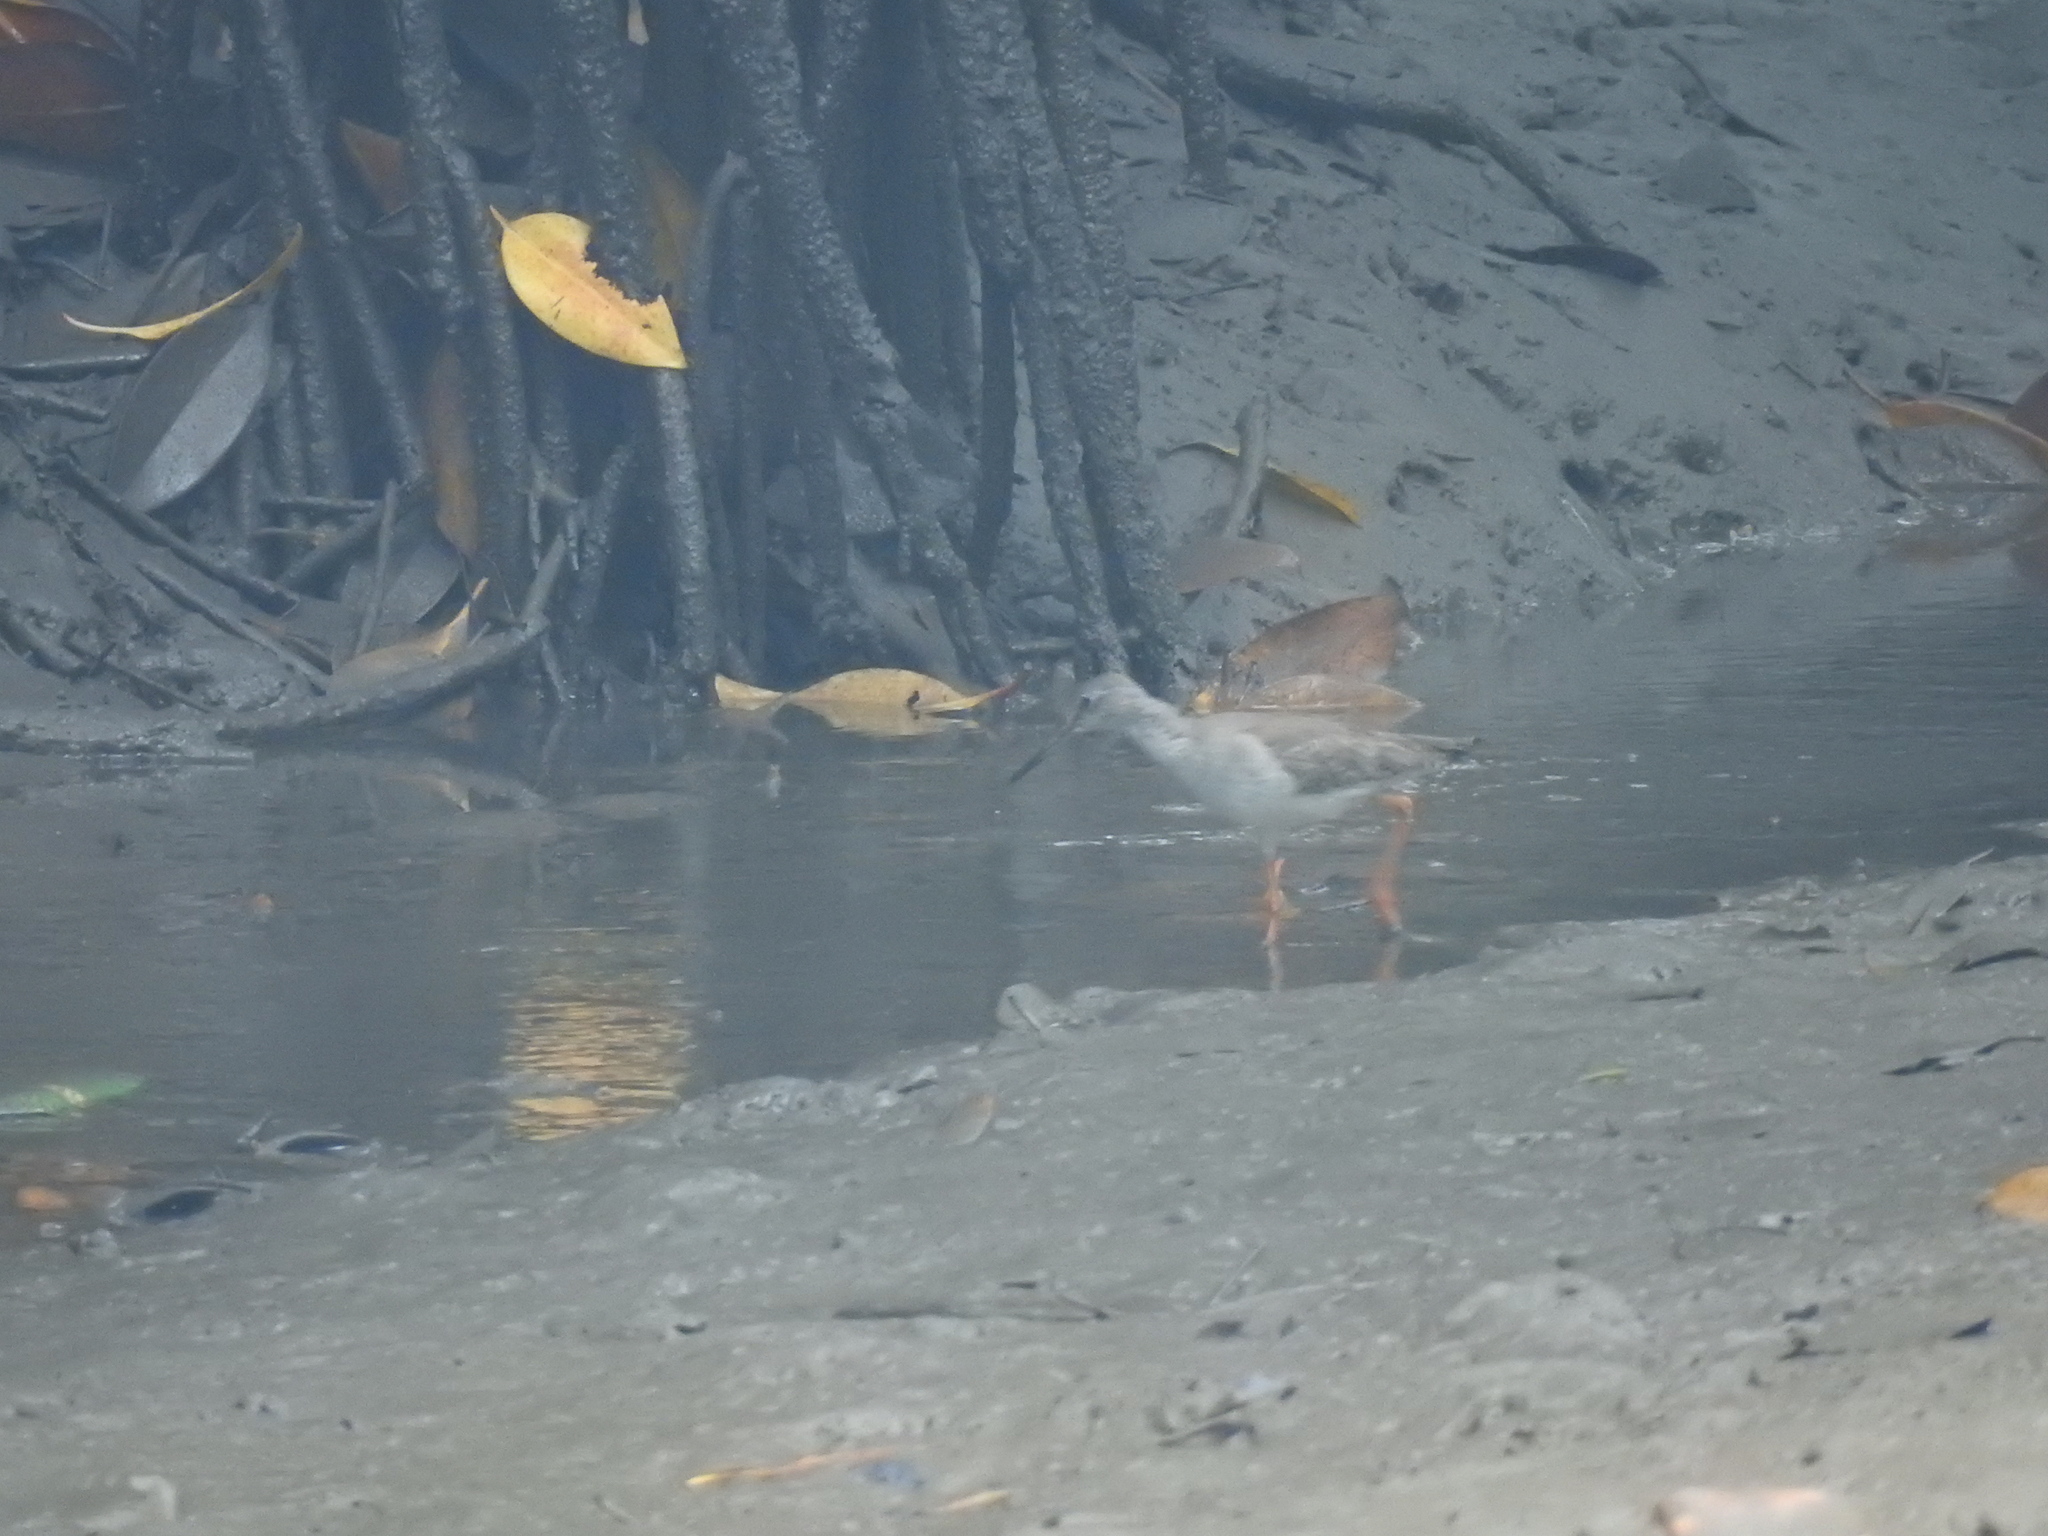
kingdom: Animalia
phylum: Chordata
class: Aves
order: Charadriiformes
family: Scolopacidae
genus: Tringa
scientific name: Tringa totanus
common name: Common redshank
